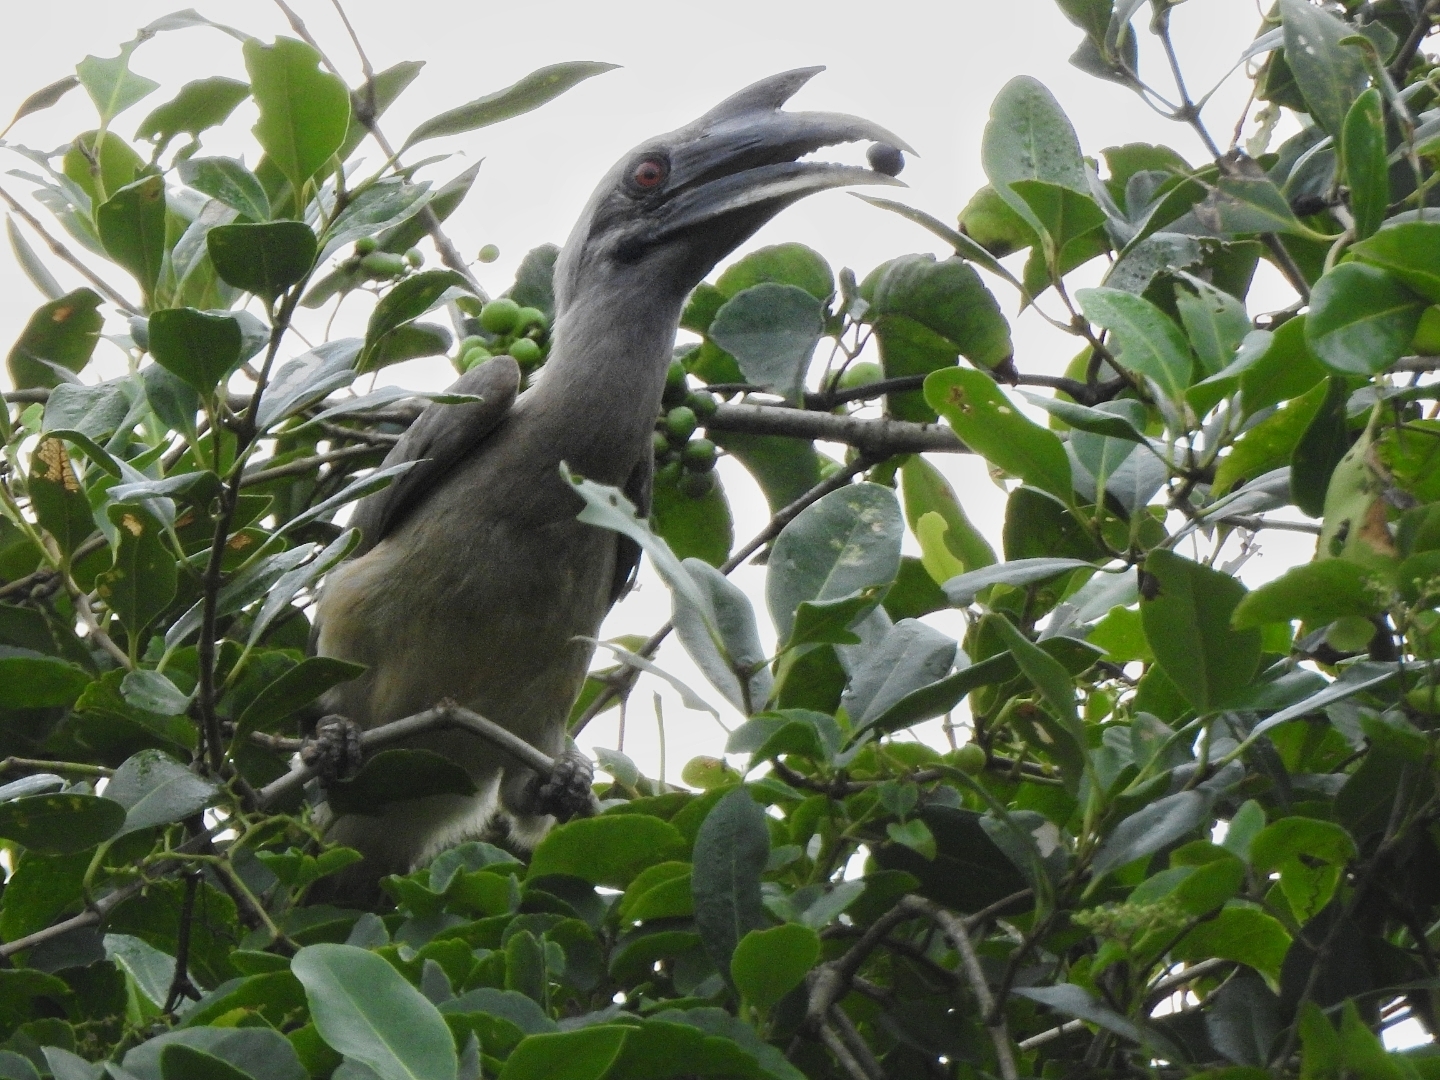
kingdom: Animalia
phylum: Chordata
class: Aves
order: Bucerotiformes
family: Bucerotidae
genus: Ocyceros
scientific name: Ocyceros birostris
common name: Indian grey hornbill
